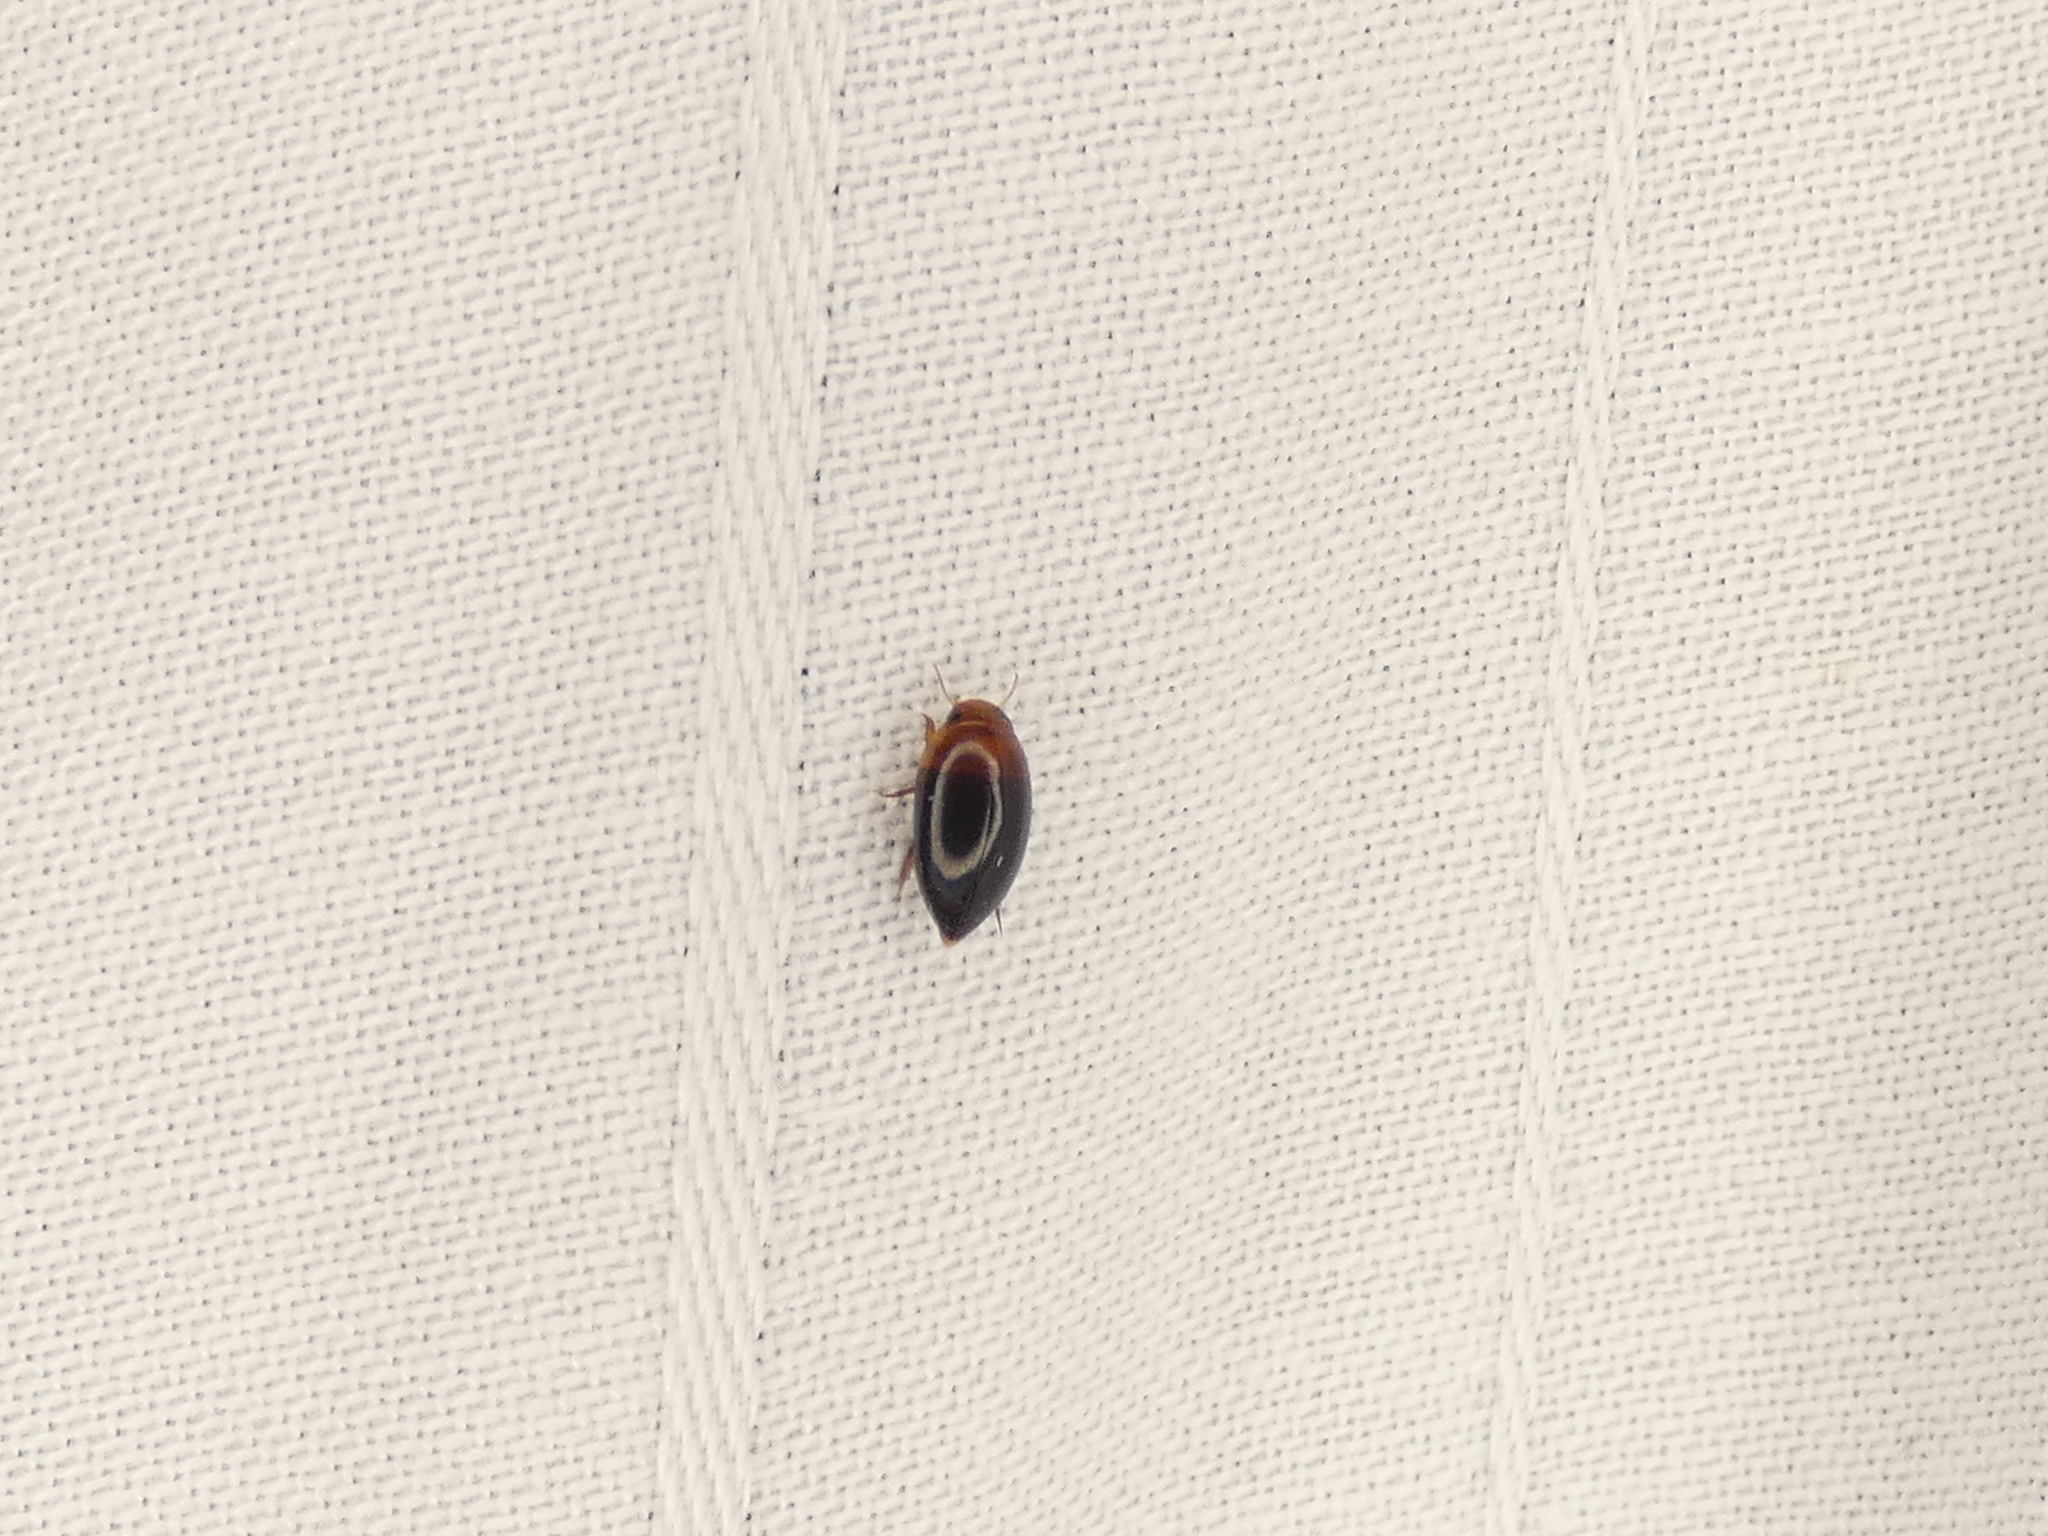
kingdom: Animalia
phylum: Arthropoda
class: Insecta
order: Coleoptera
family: Noteridae
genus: Hydrocanthus
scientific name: Hydrocanthus
